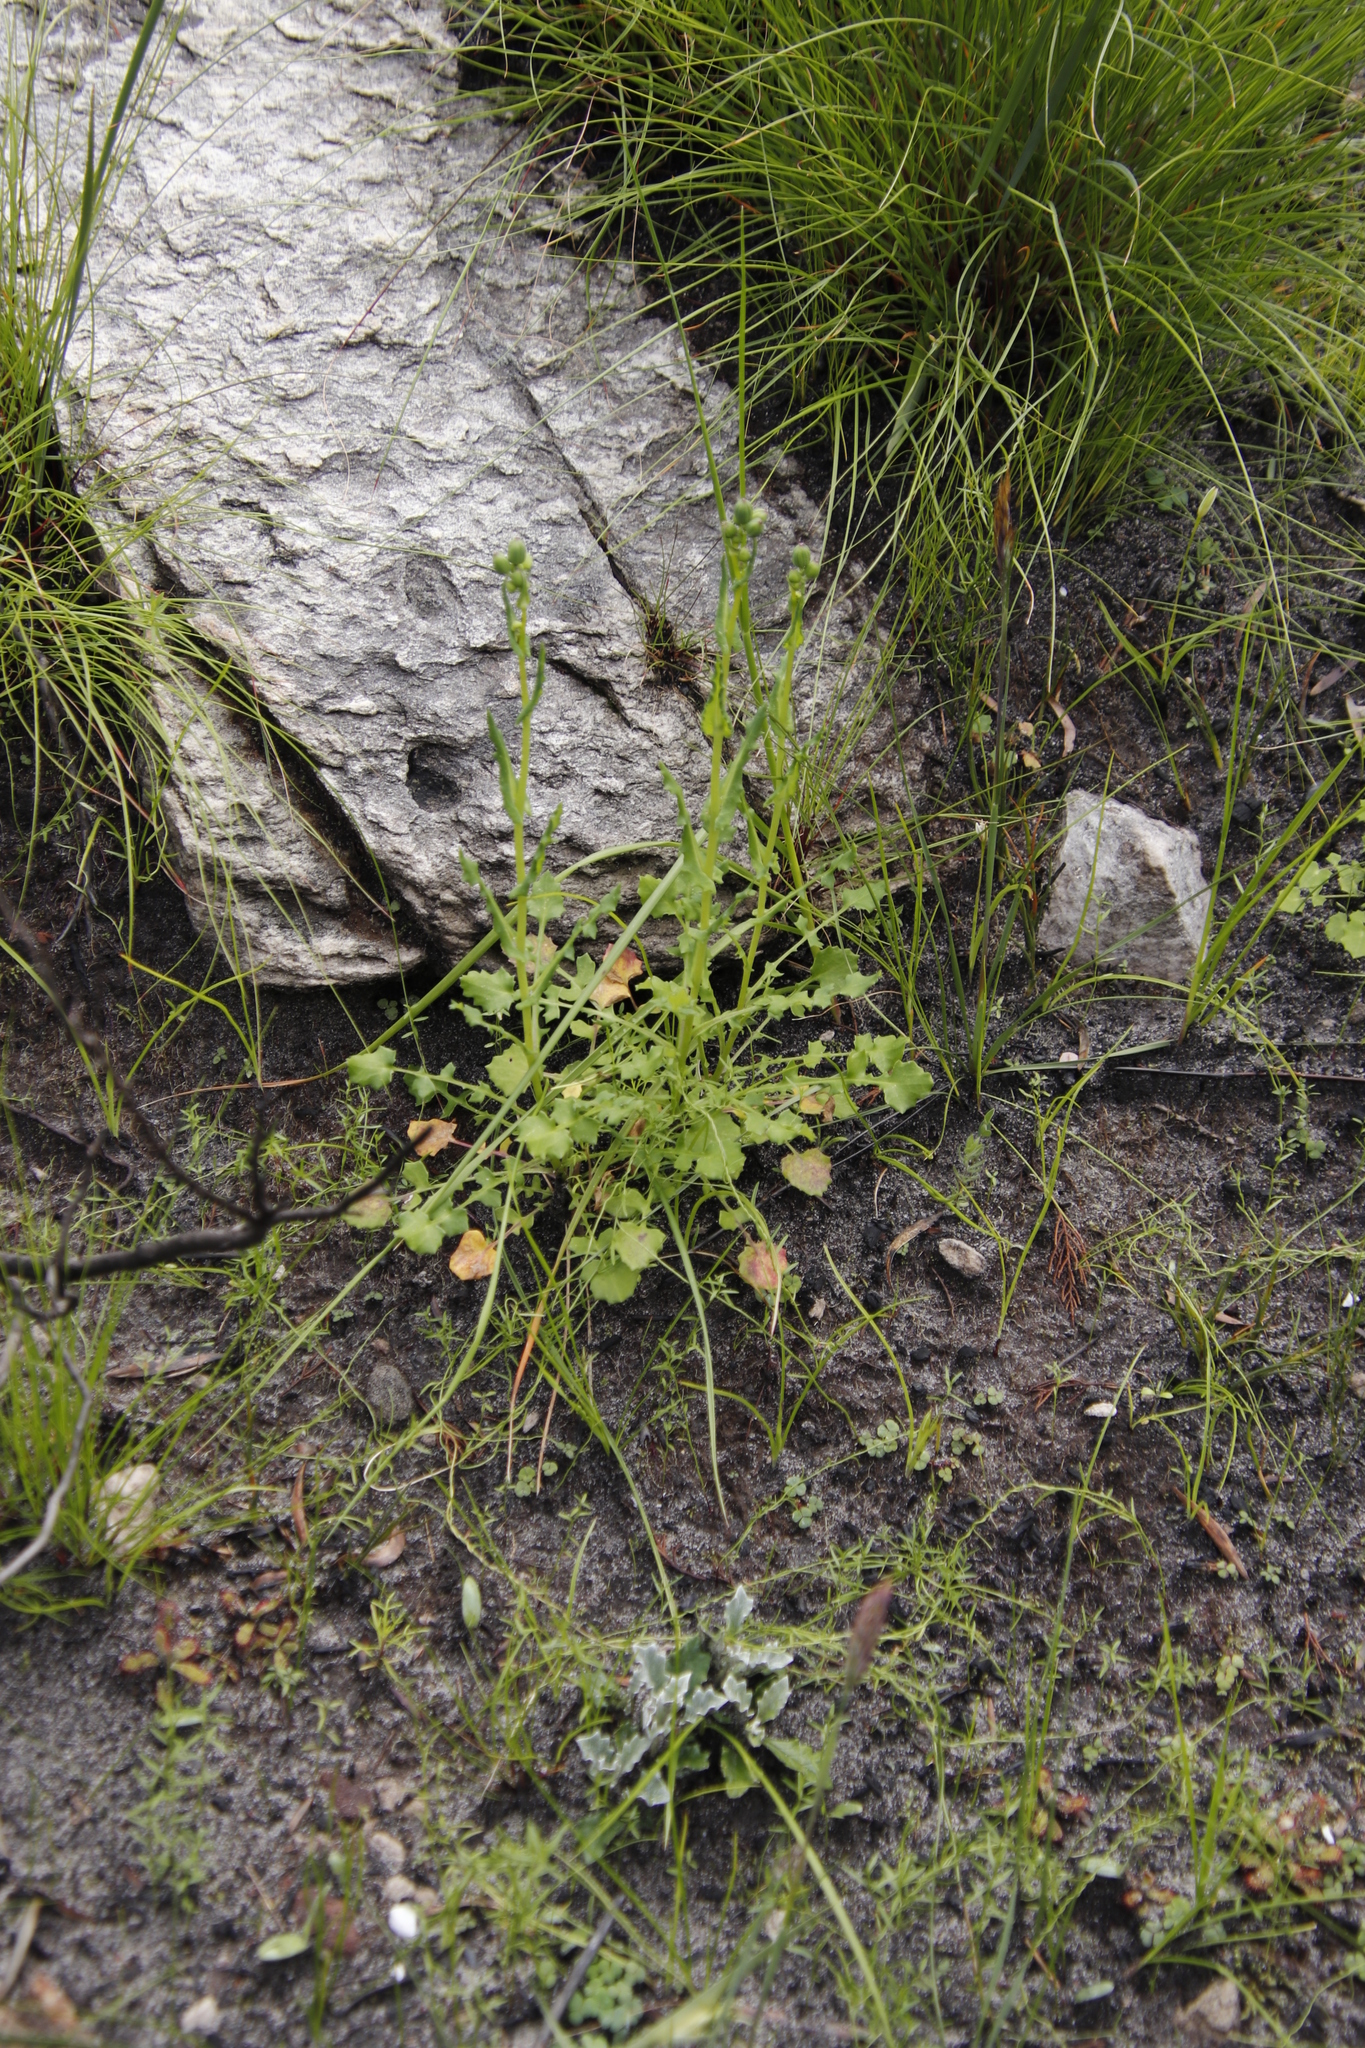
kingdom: Plantae
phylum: Tracheophyta
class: Magnoliopsida
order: Asterales
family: Asteraceae
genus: Senecio
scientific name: Senecio cymbalariifolius
